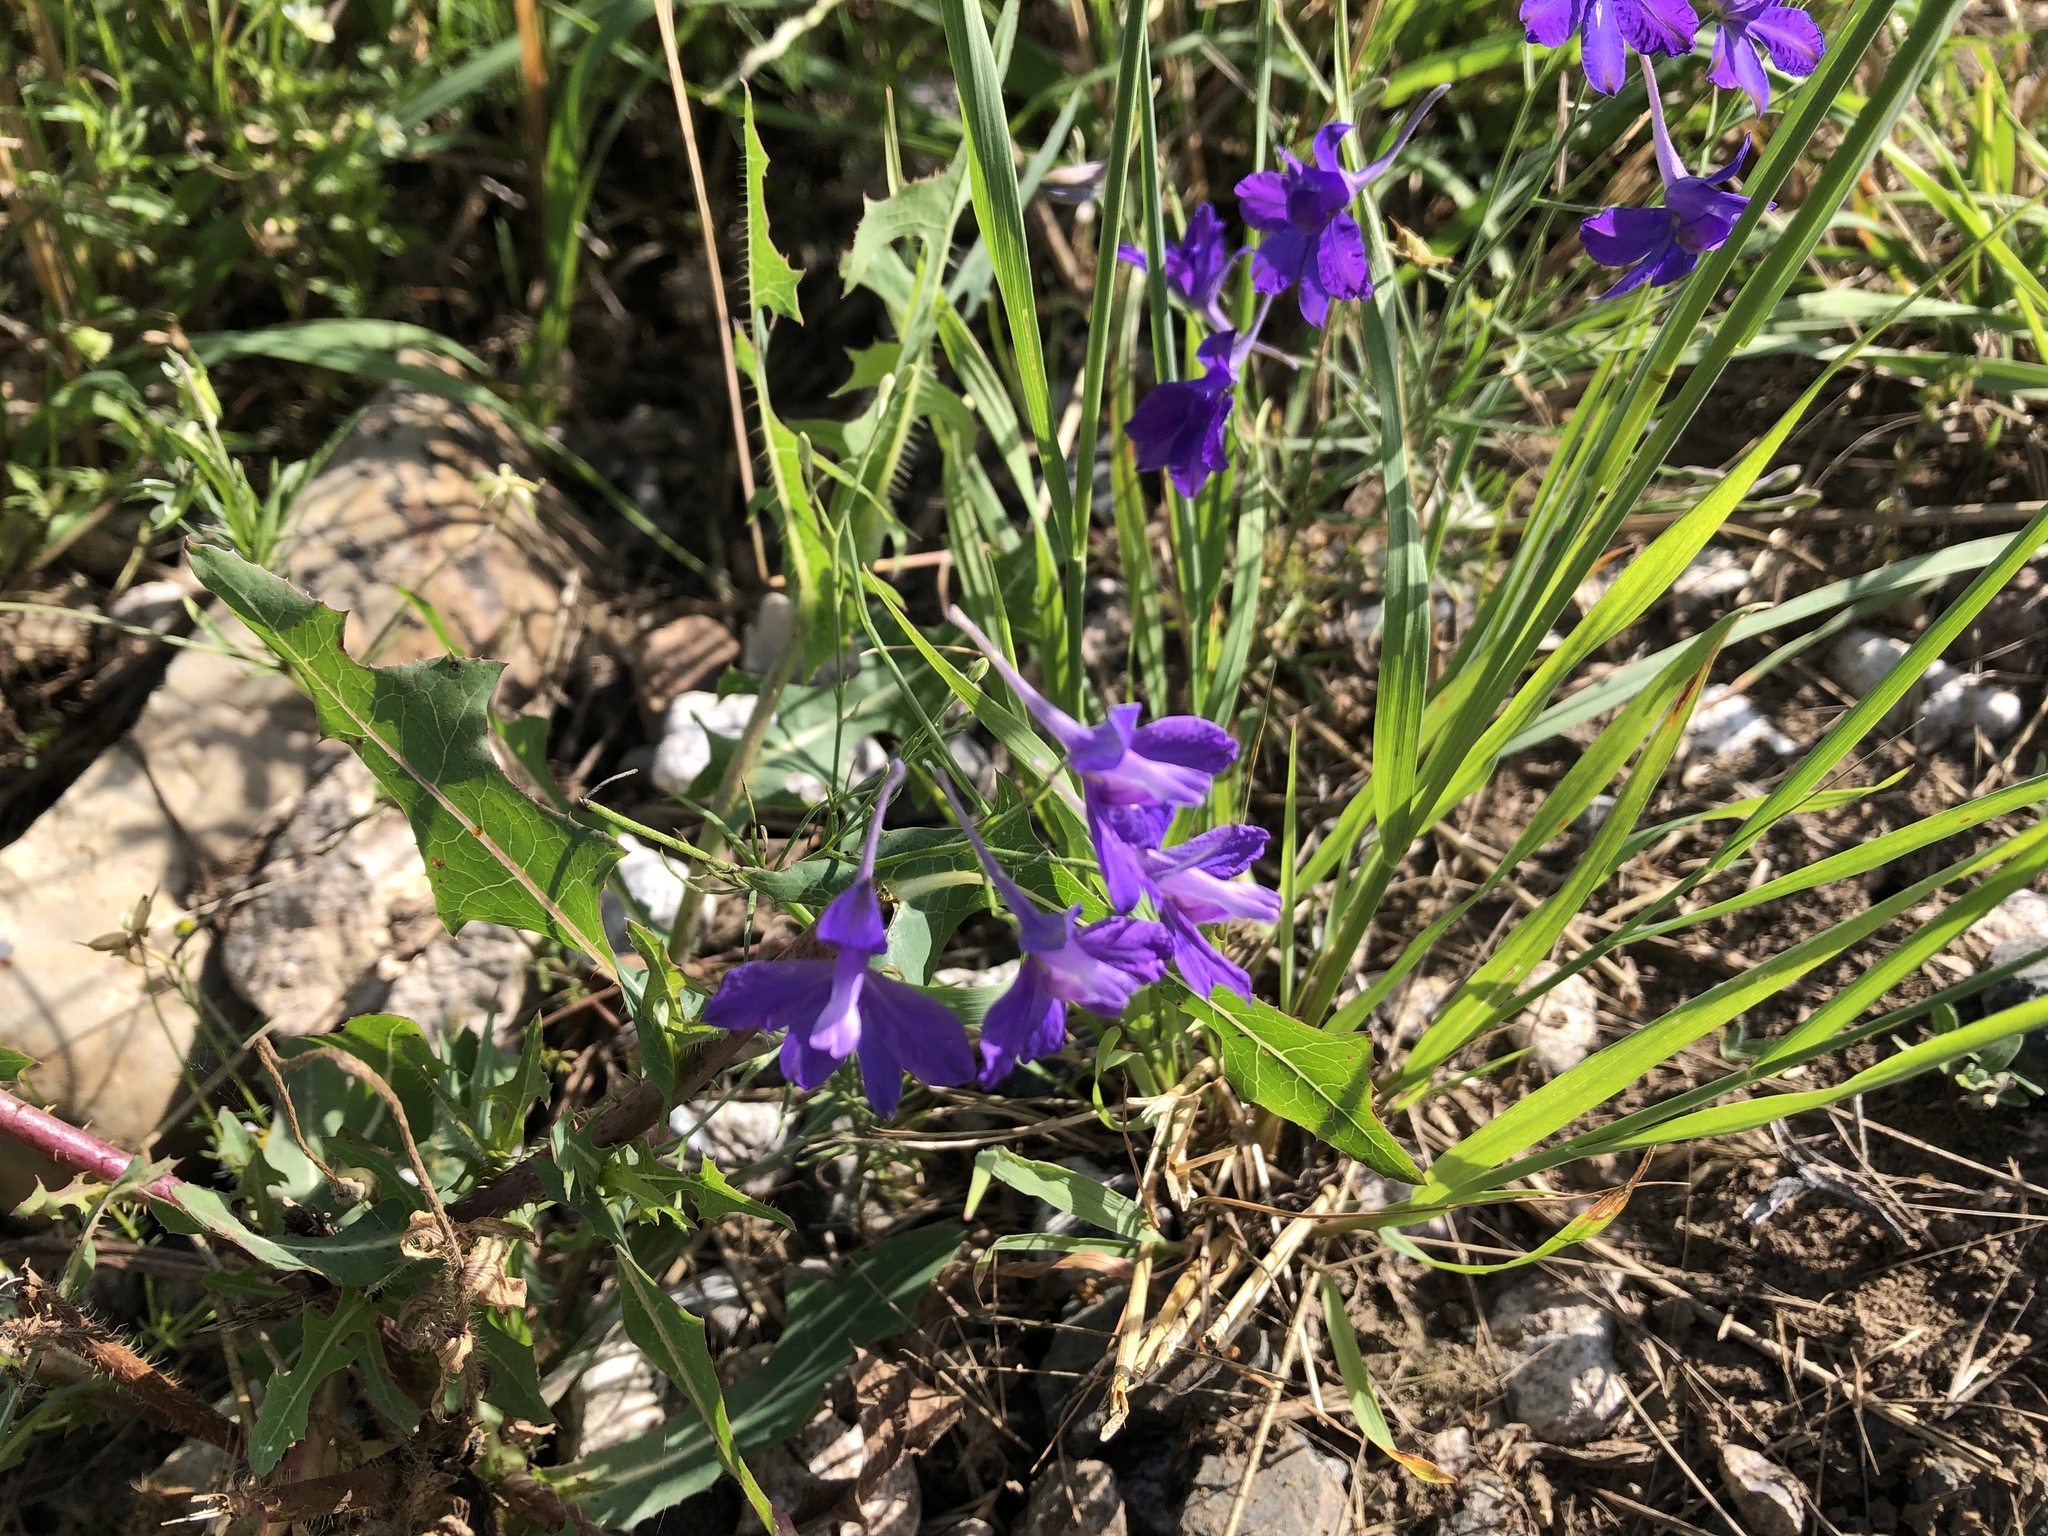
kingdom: Plantae
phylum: Tracheophyta
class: Magnoliopsida
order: Ranunculales
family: Ranunculaceae
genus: Delphinium
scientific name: Delphinium consolida
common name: Branching larkspur
